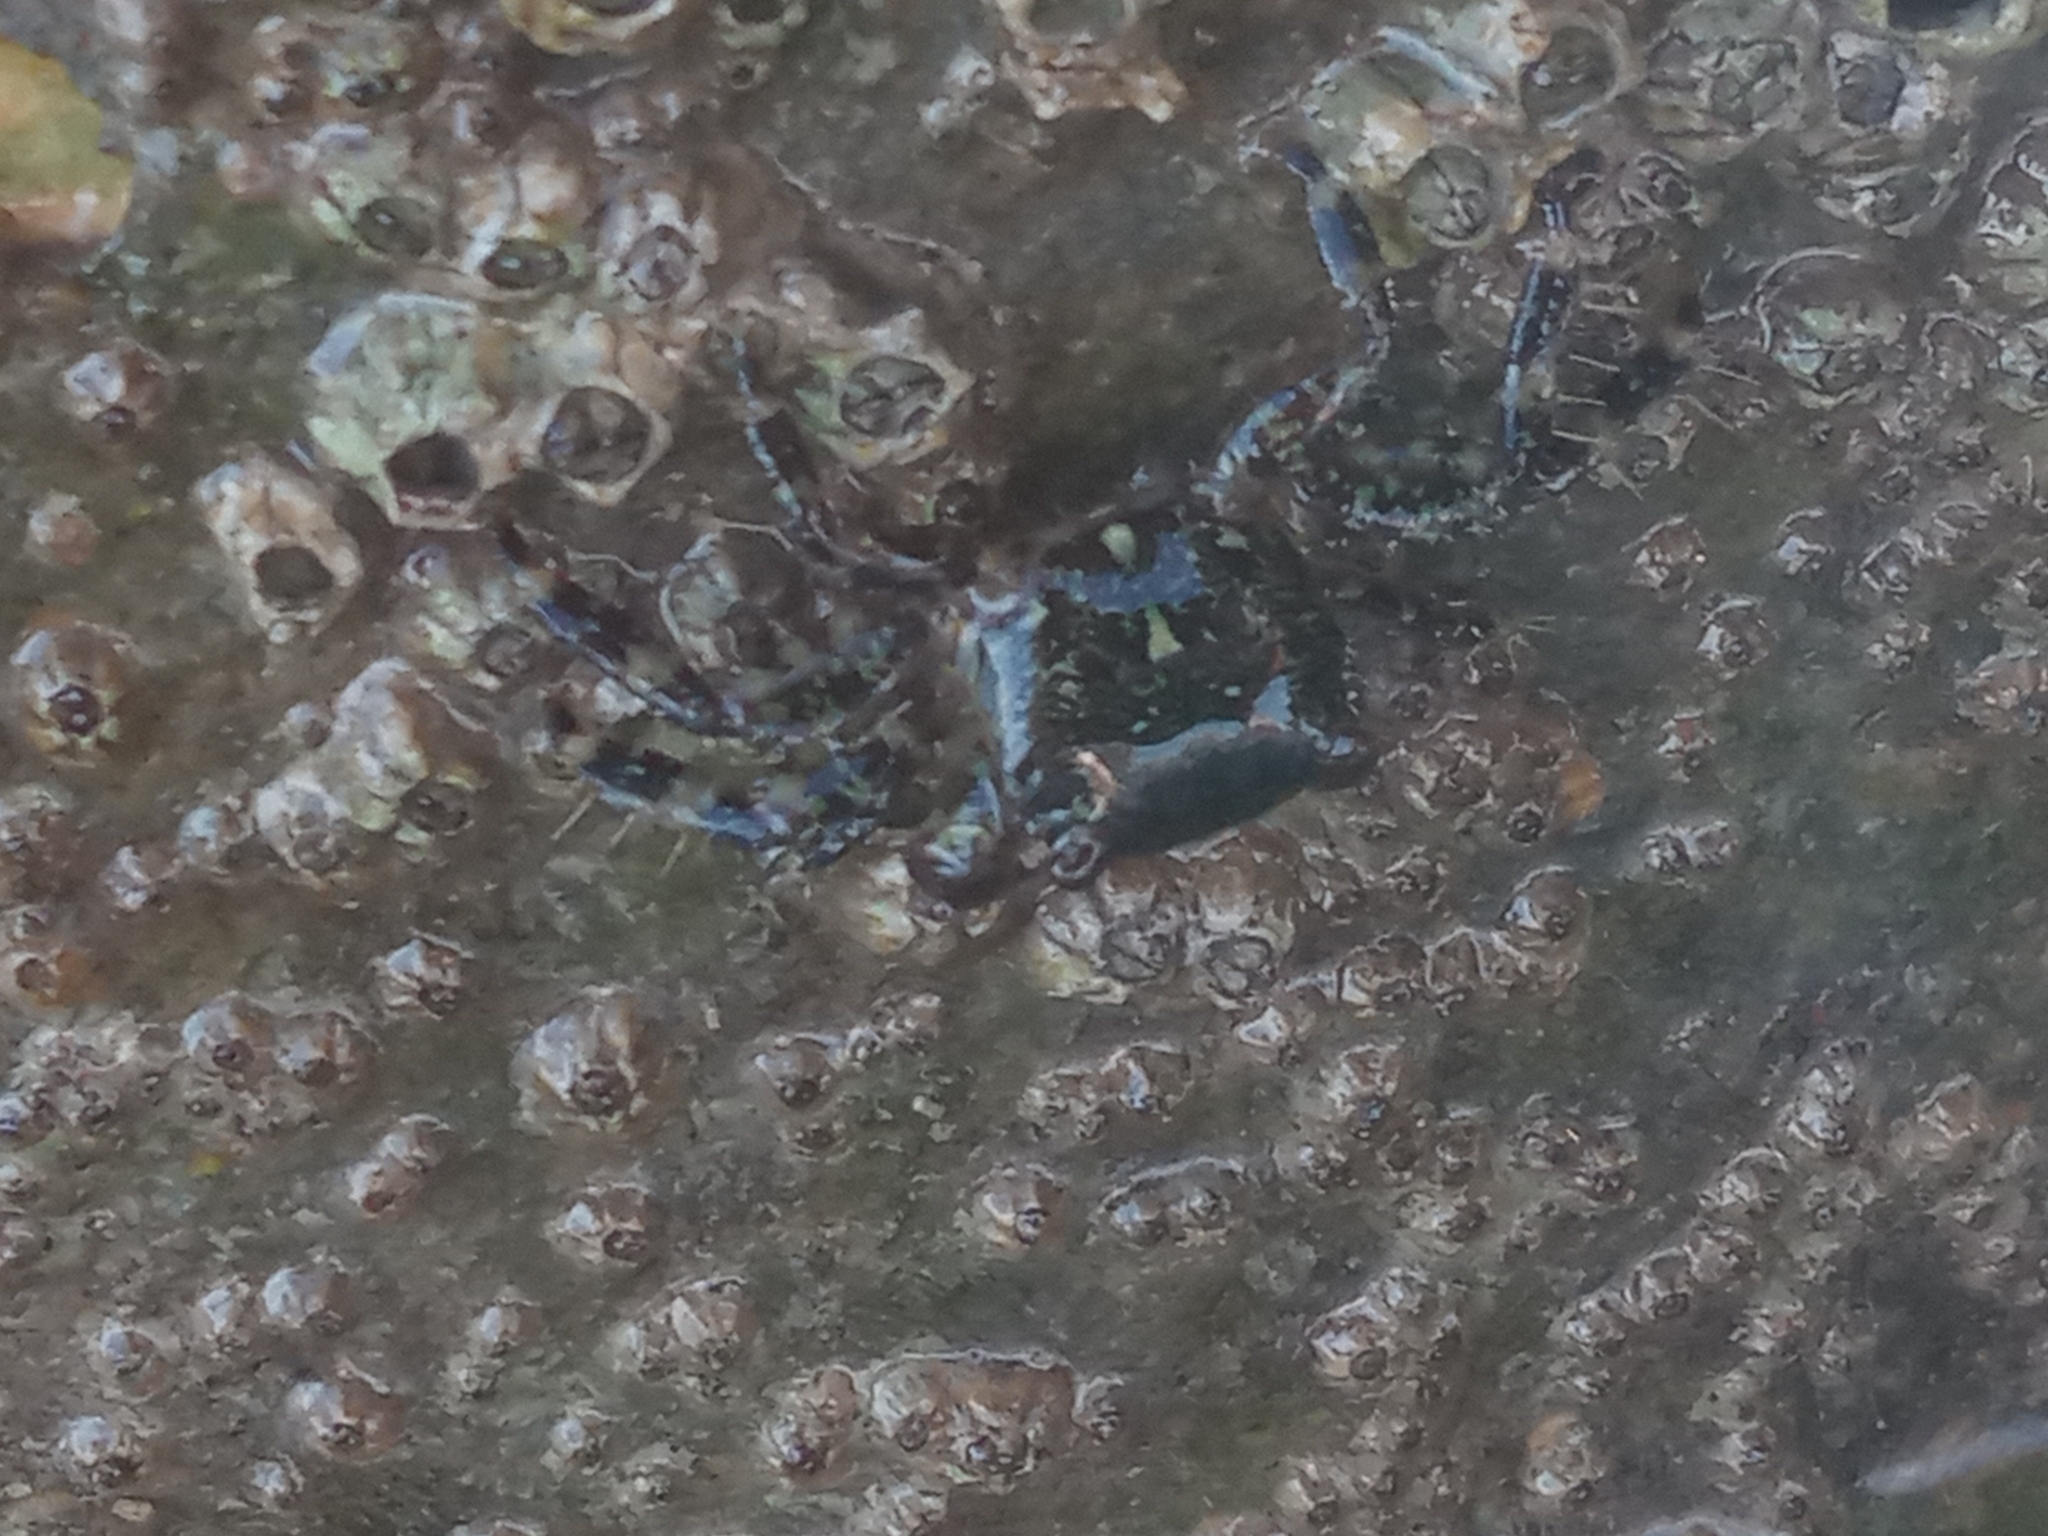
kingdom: Animalia
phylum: Arthropoda
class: Malacostraca
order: Decapoda
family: Grapsidae
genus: Pachygrapsus
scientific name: Pachygrapsus marmoratus
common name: Marbled rock crab
